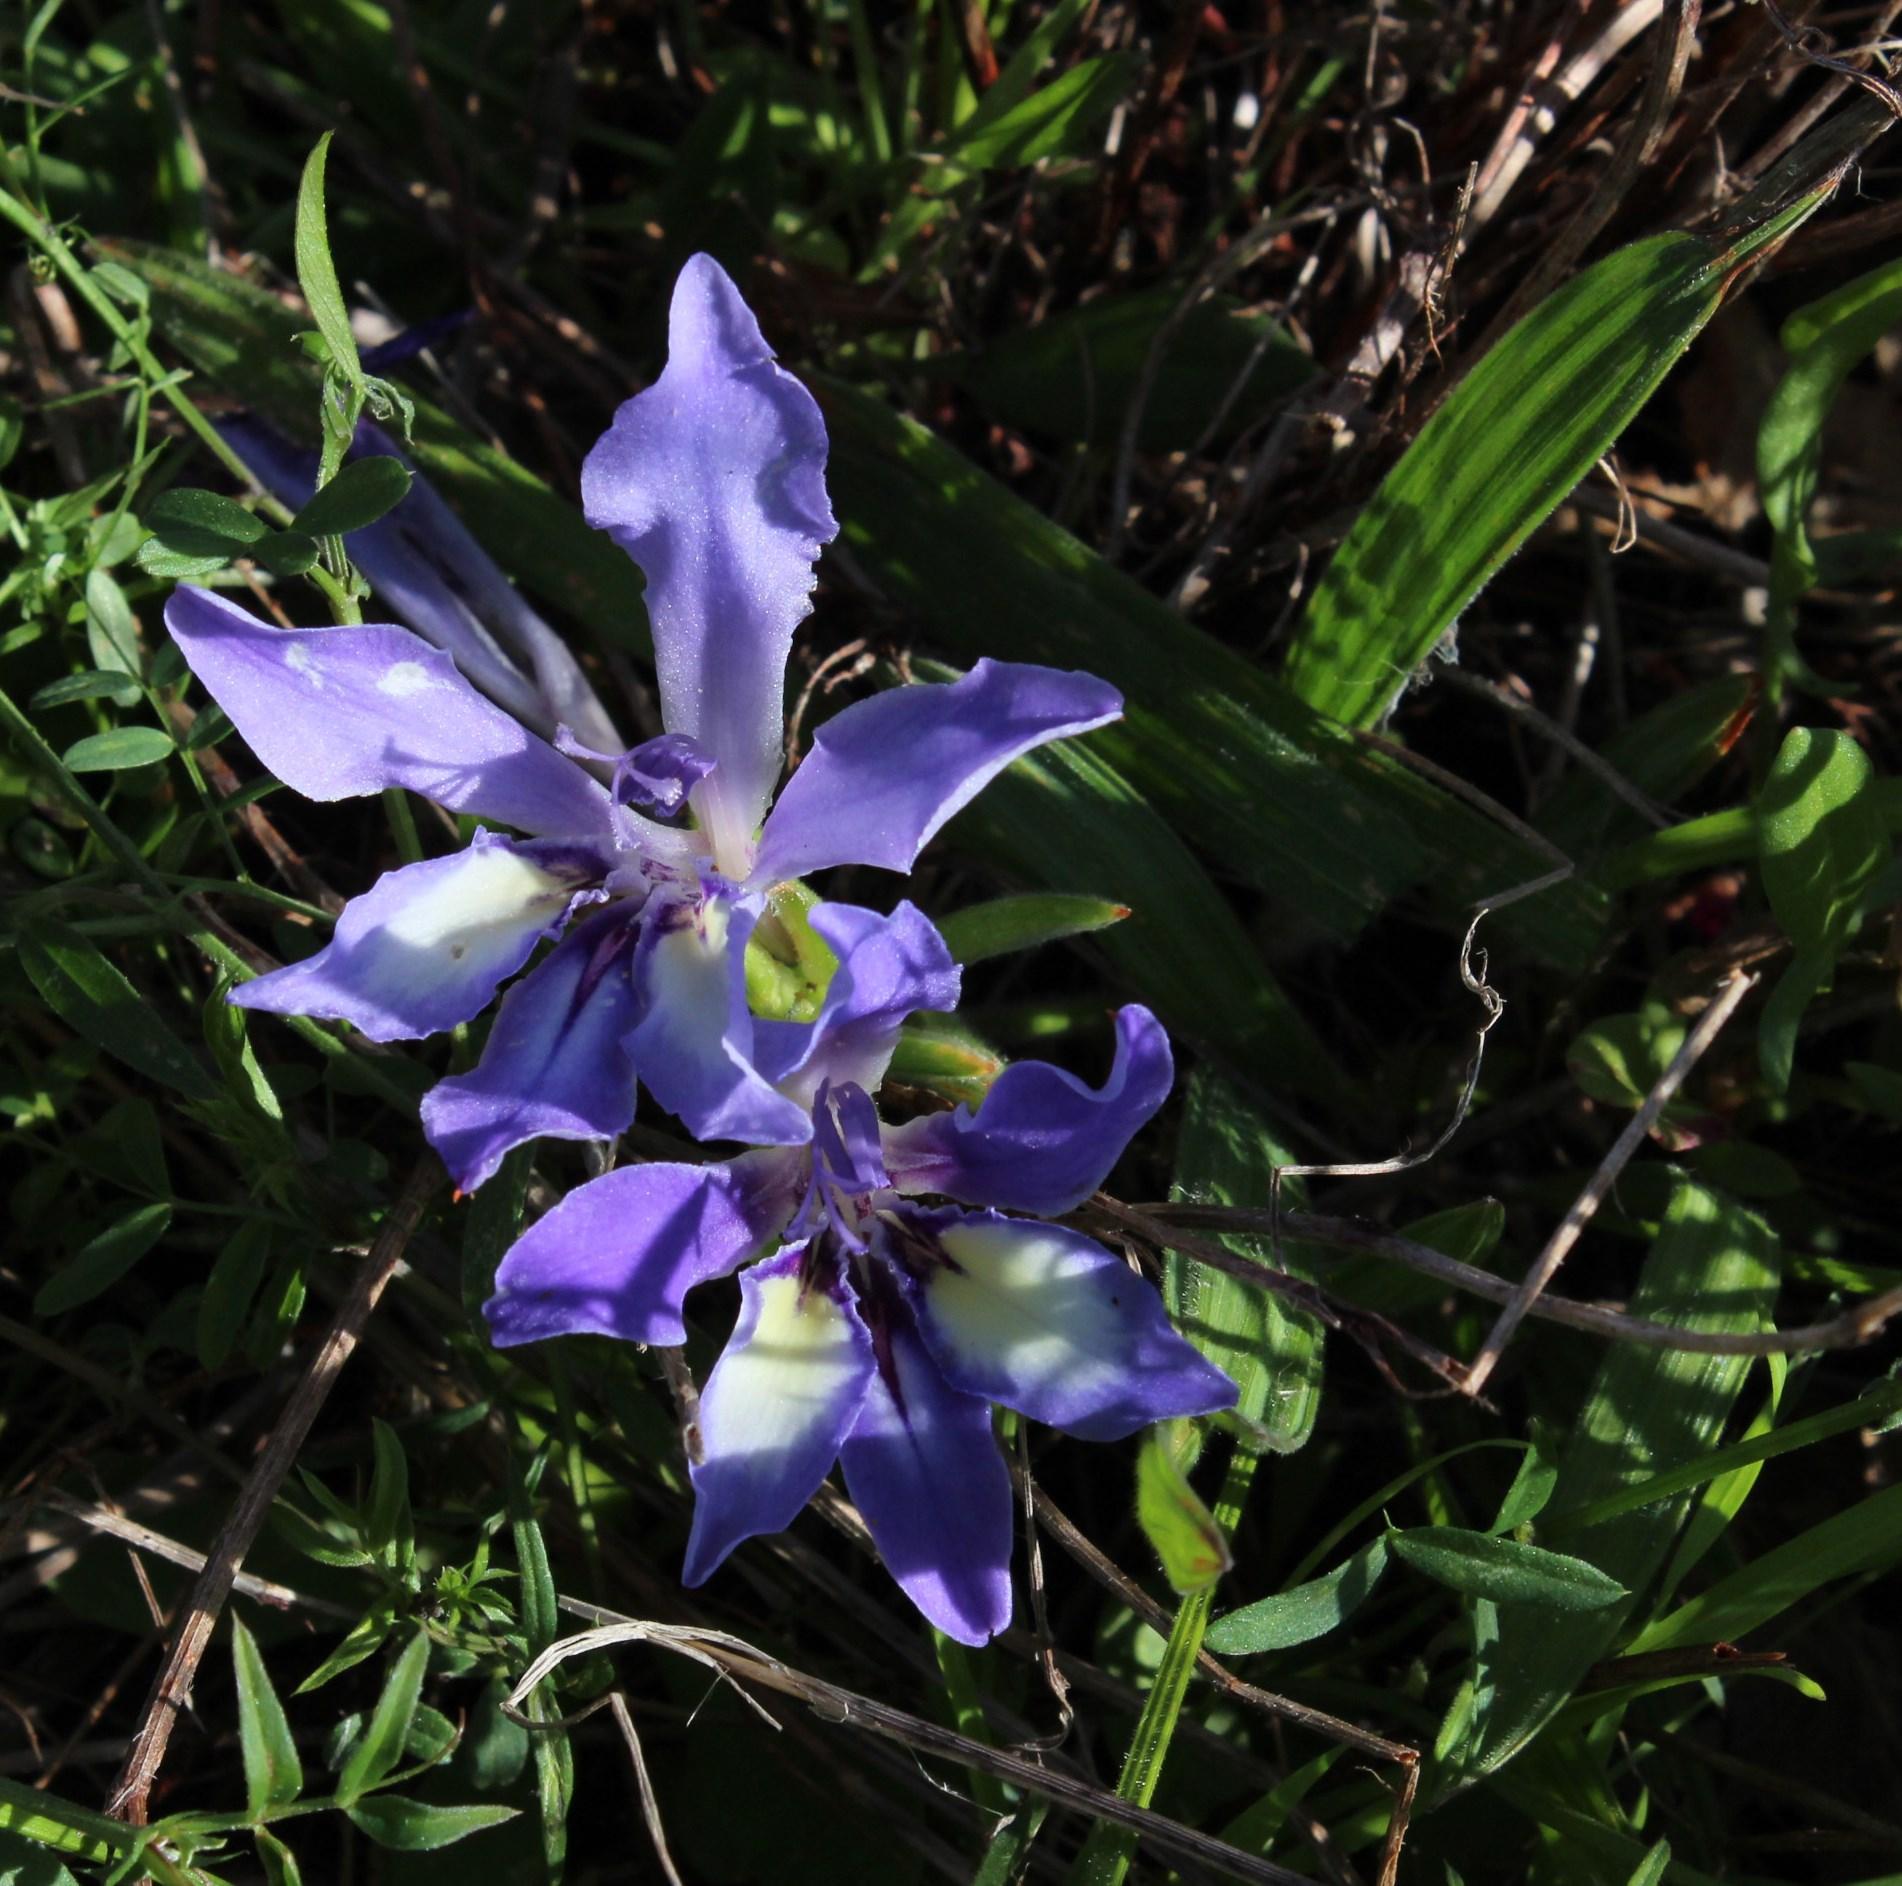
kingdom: Plantae
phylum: Tracheophyta
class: Liliopsida
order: Asparagales
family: Iridaceae
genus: Babiana
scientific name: Babiana ambigua
